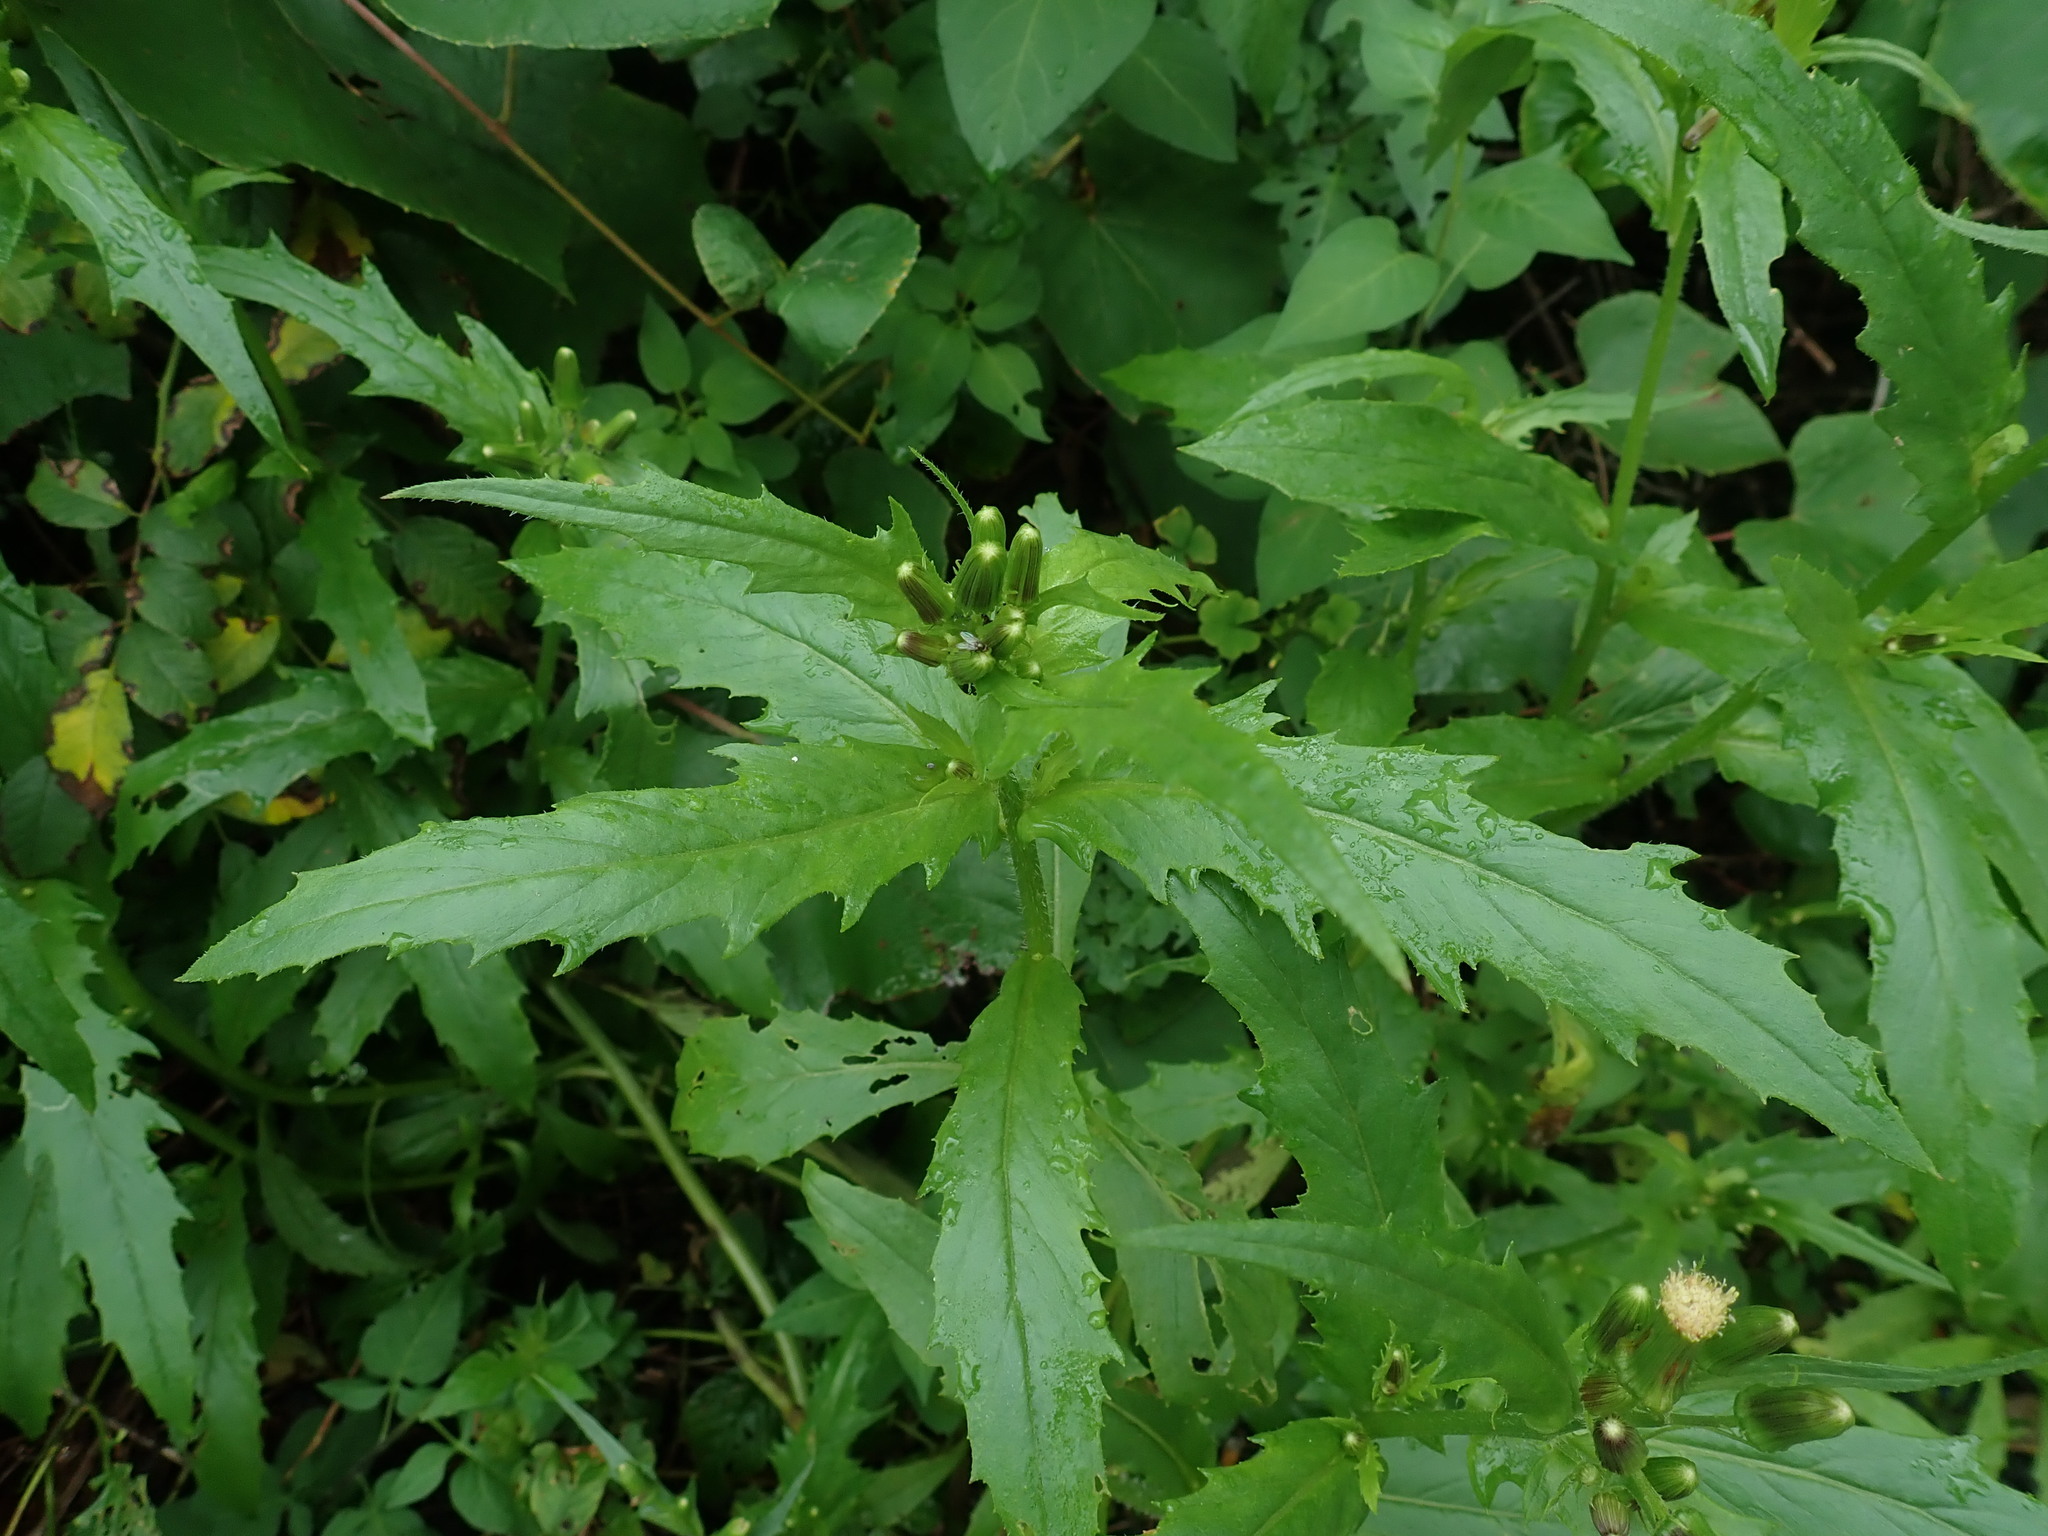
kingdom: Plantae
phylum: Tracheophyta
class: Magnoliopsida
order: Asterales
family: Asteraceae
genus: Erechtites
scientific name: Erechtites hieraciifolius
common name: American burnweed
